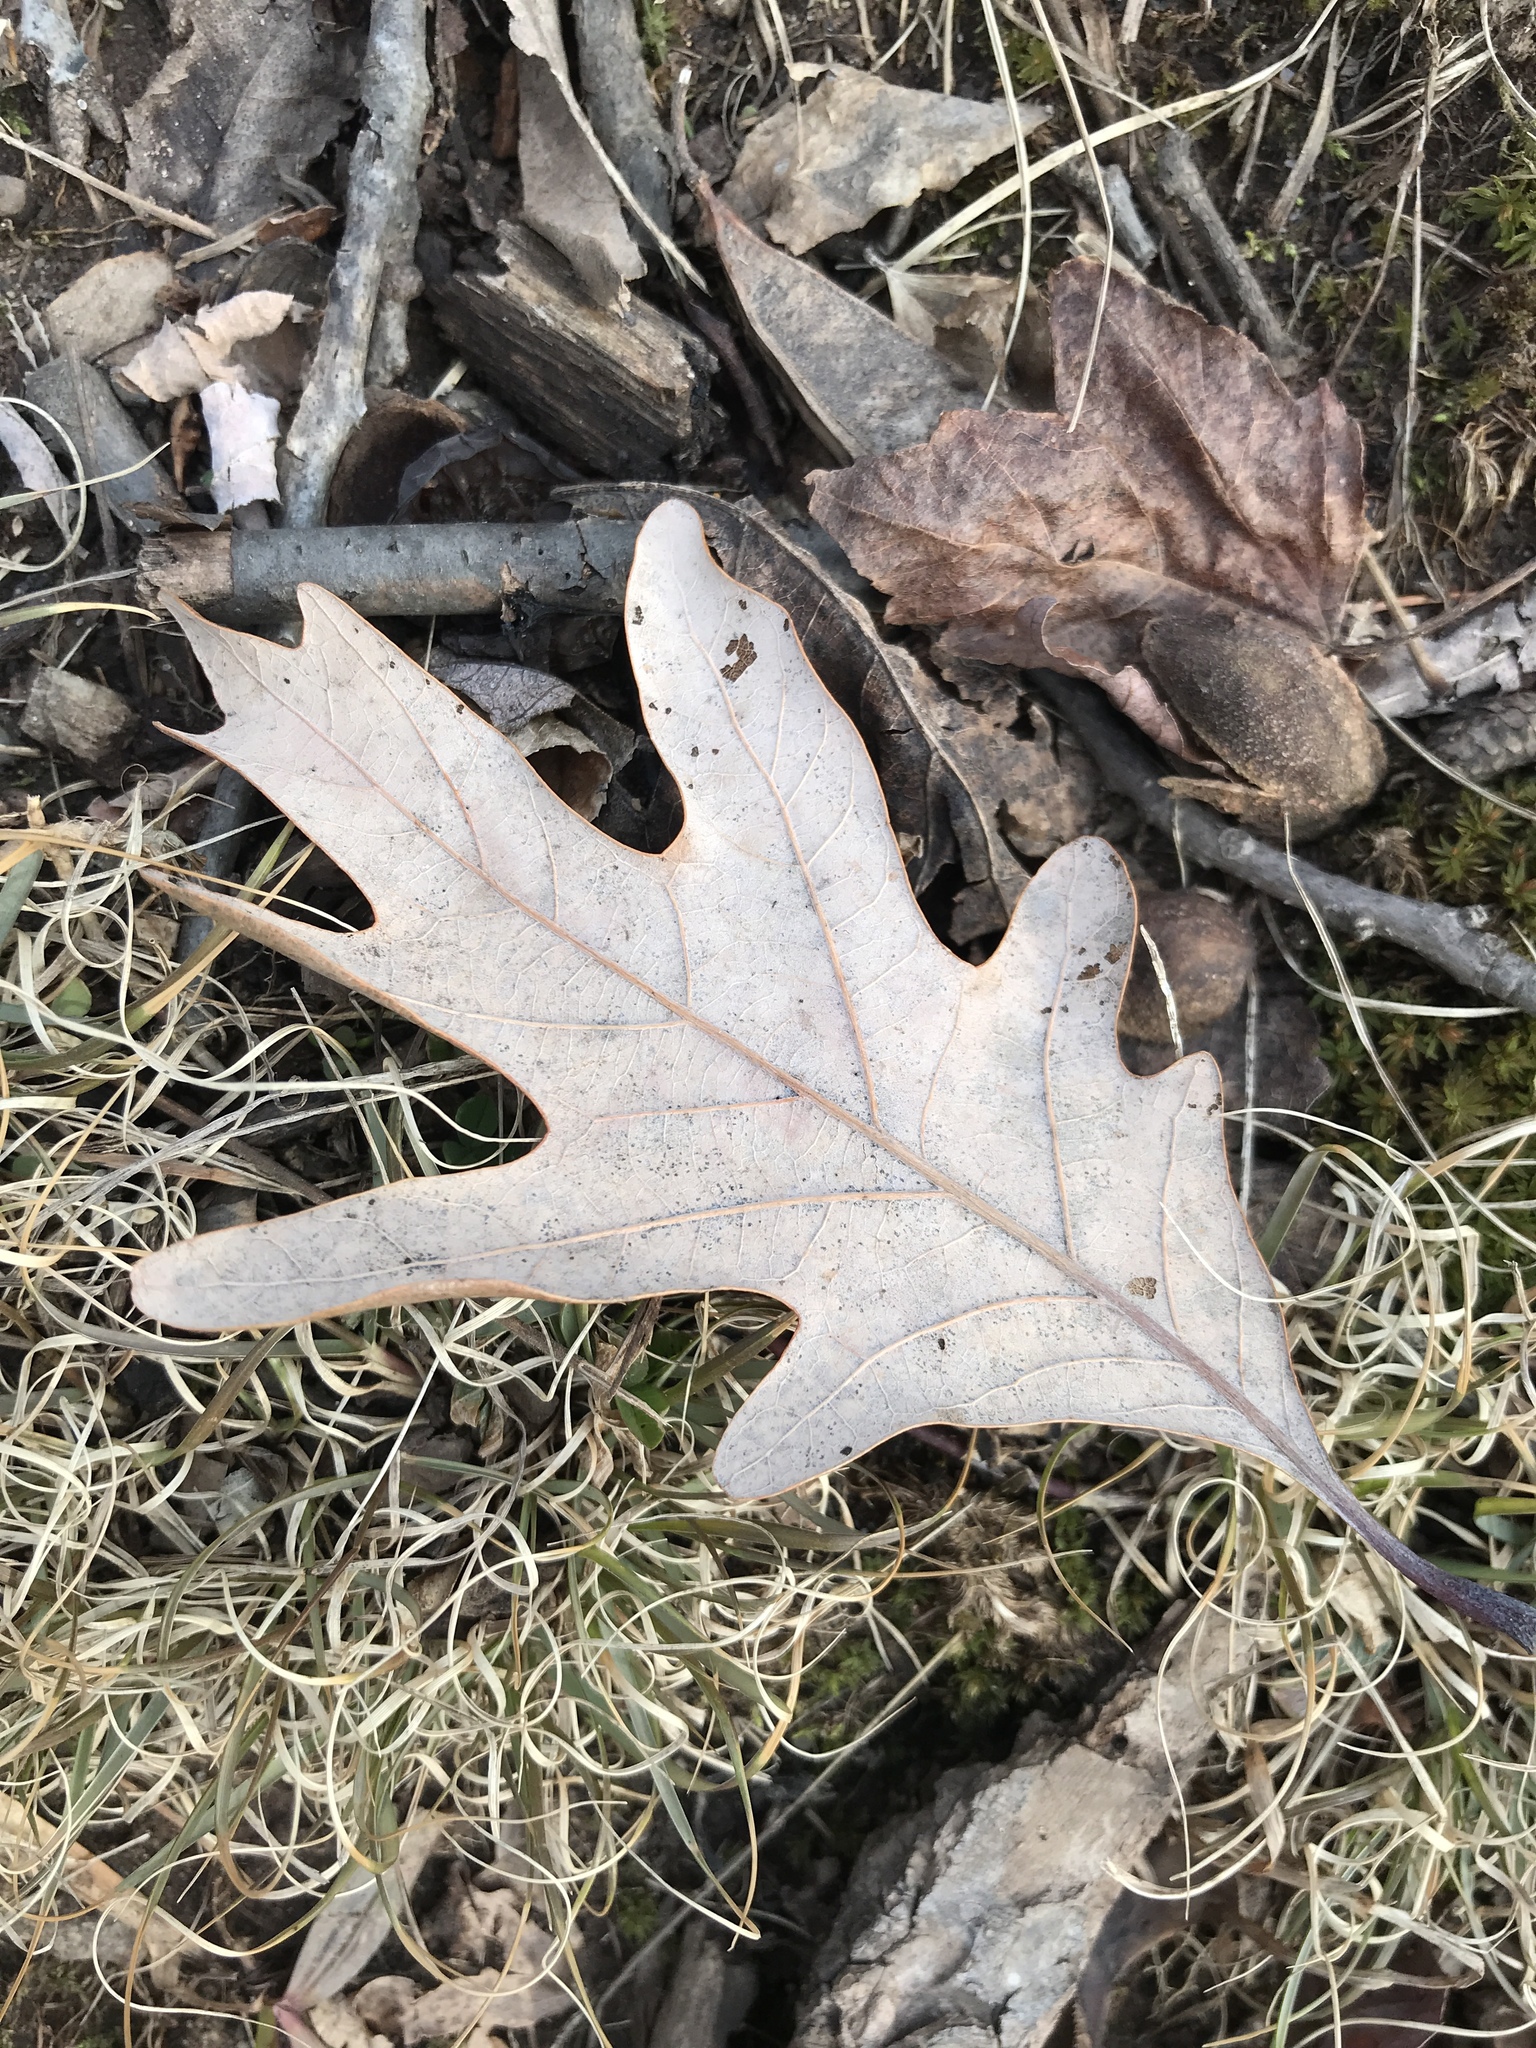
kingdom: Plantae
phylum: Tracheophyta
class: Magnoliopsida
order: Fagales
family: Fagaceae
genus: Quercus
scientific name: Quercus alba
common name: White oak
